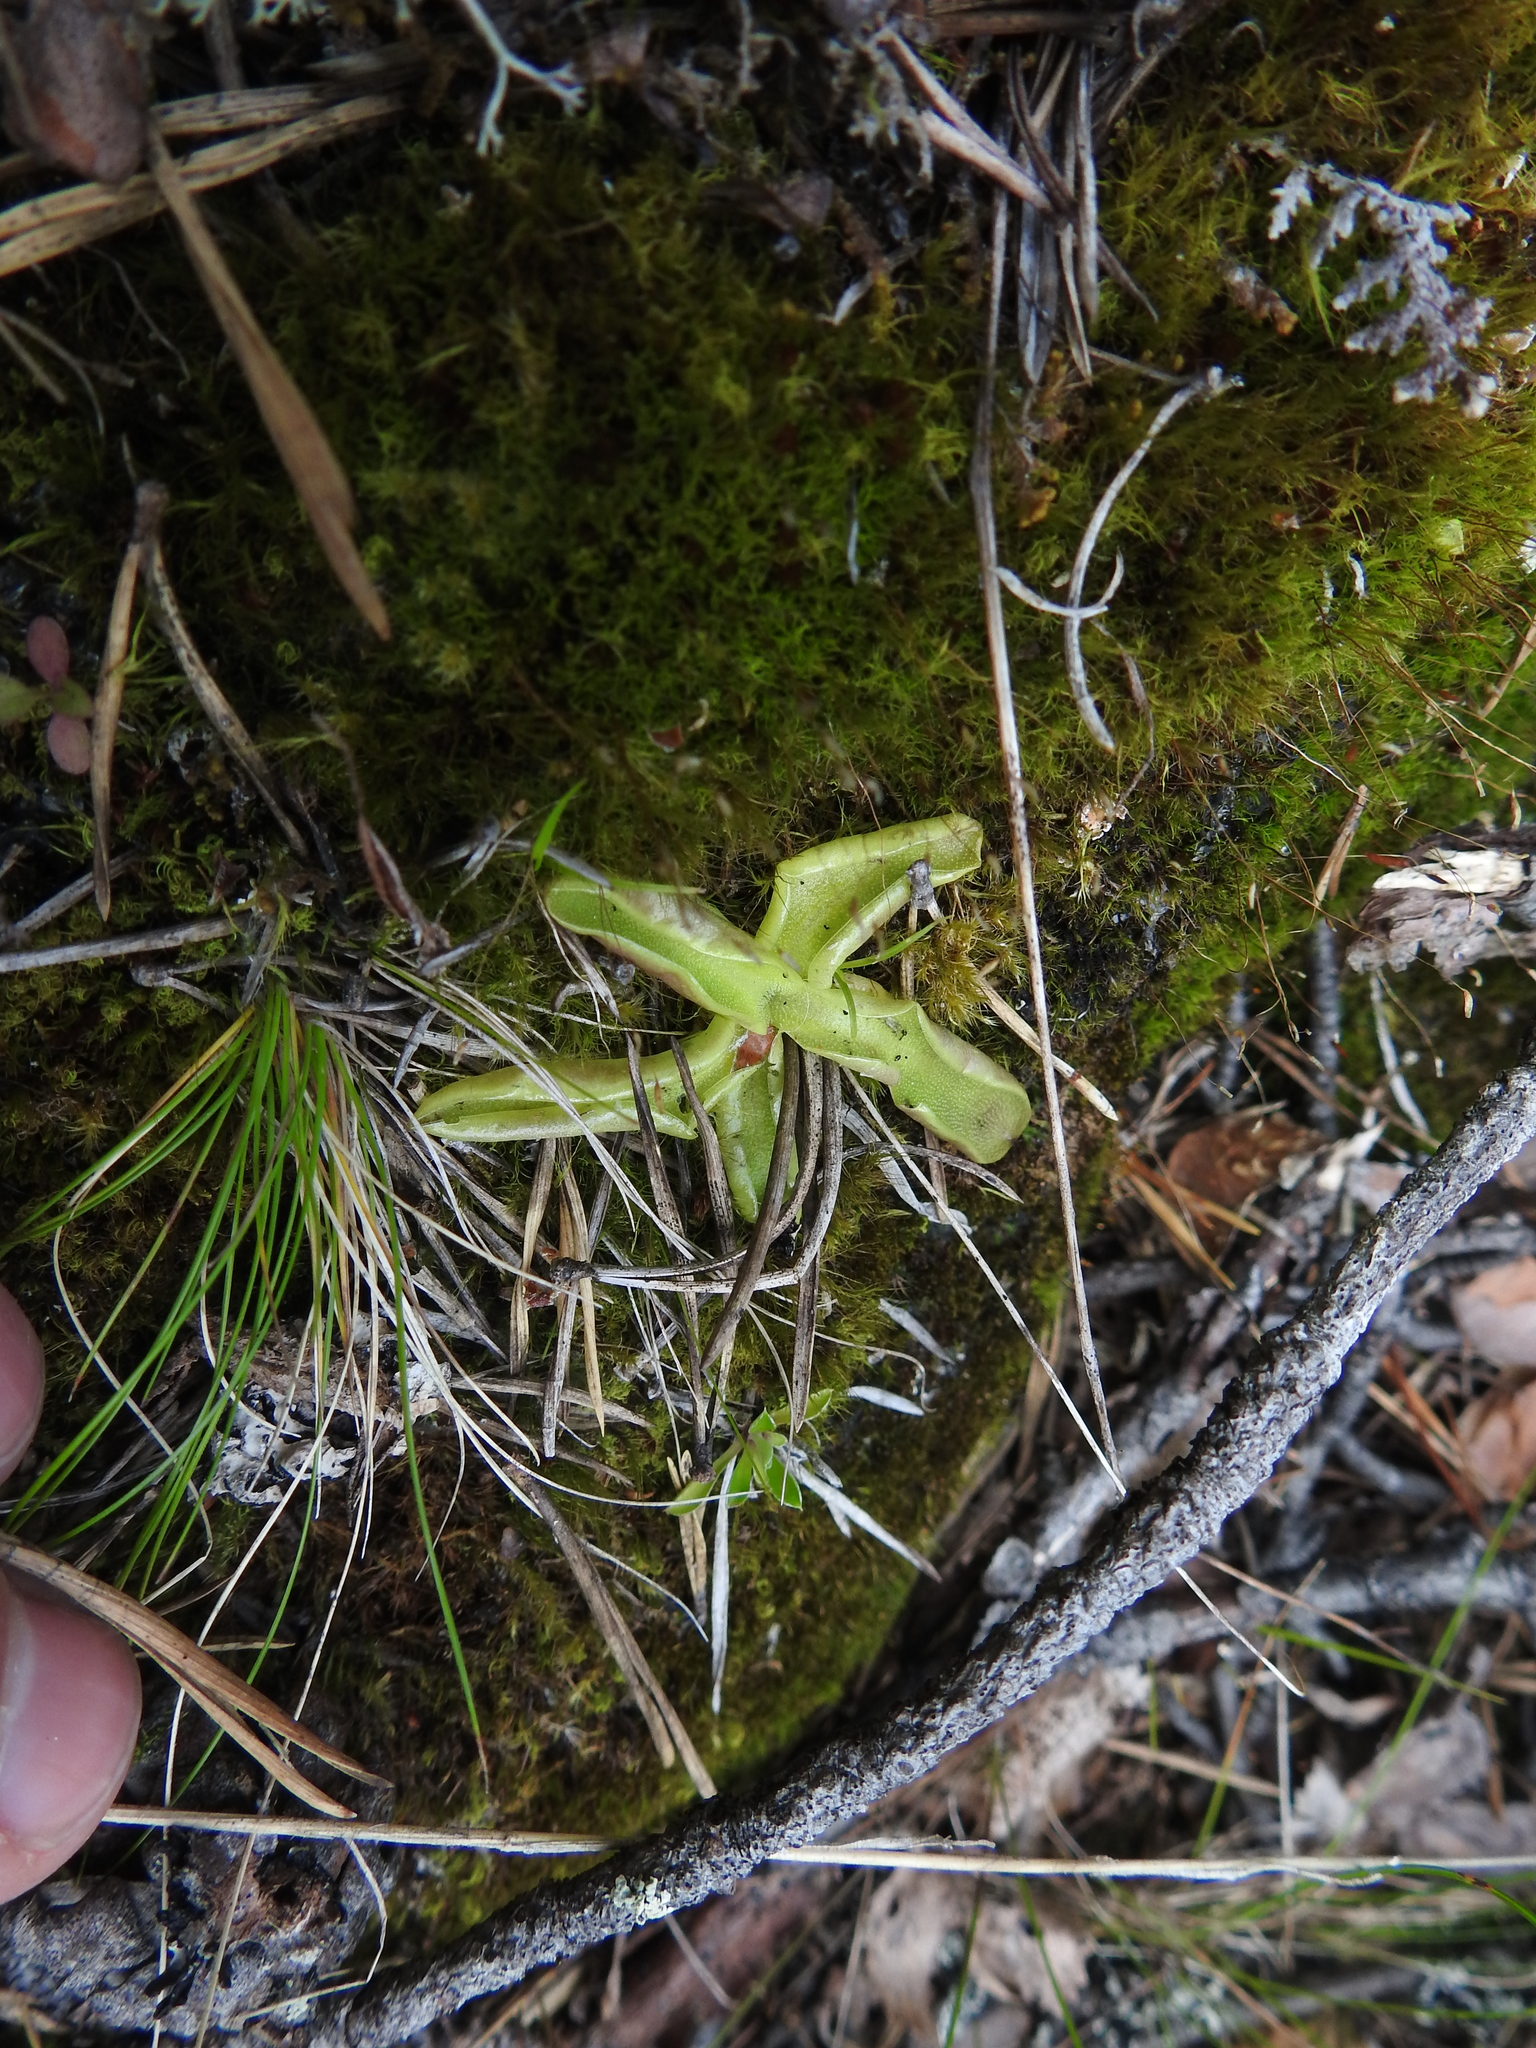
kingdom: Plantae
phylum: Tracheophyta
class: Magnoliopsida
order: Lamiales
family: Lentibulariaceae
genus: Pinguicula
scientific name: Pinguicula vulgaris
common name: Common butterwort
